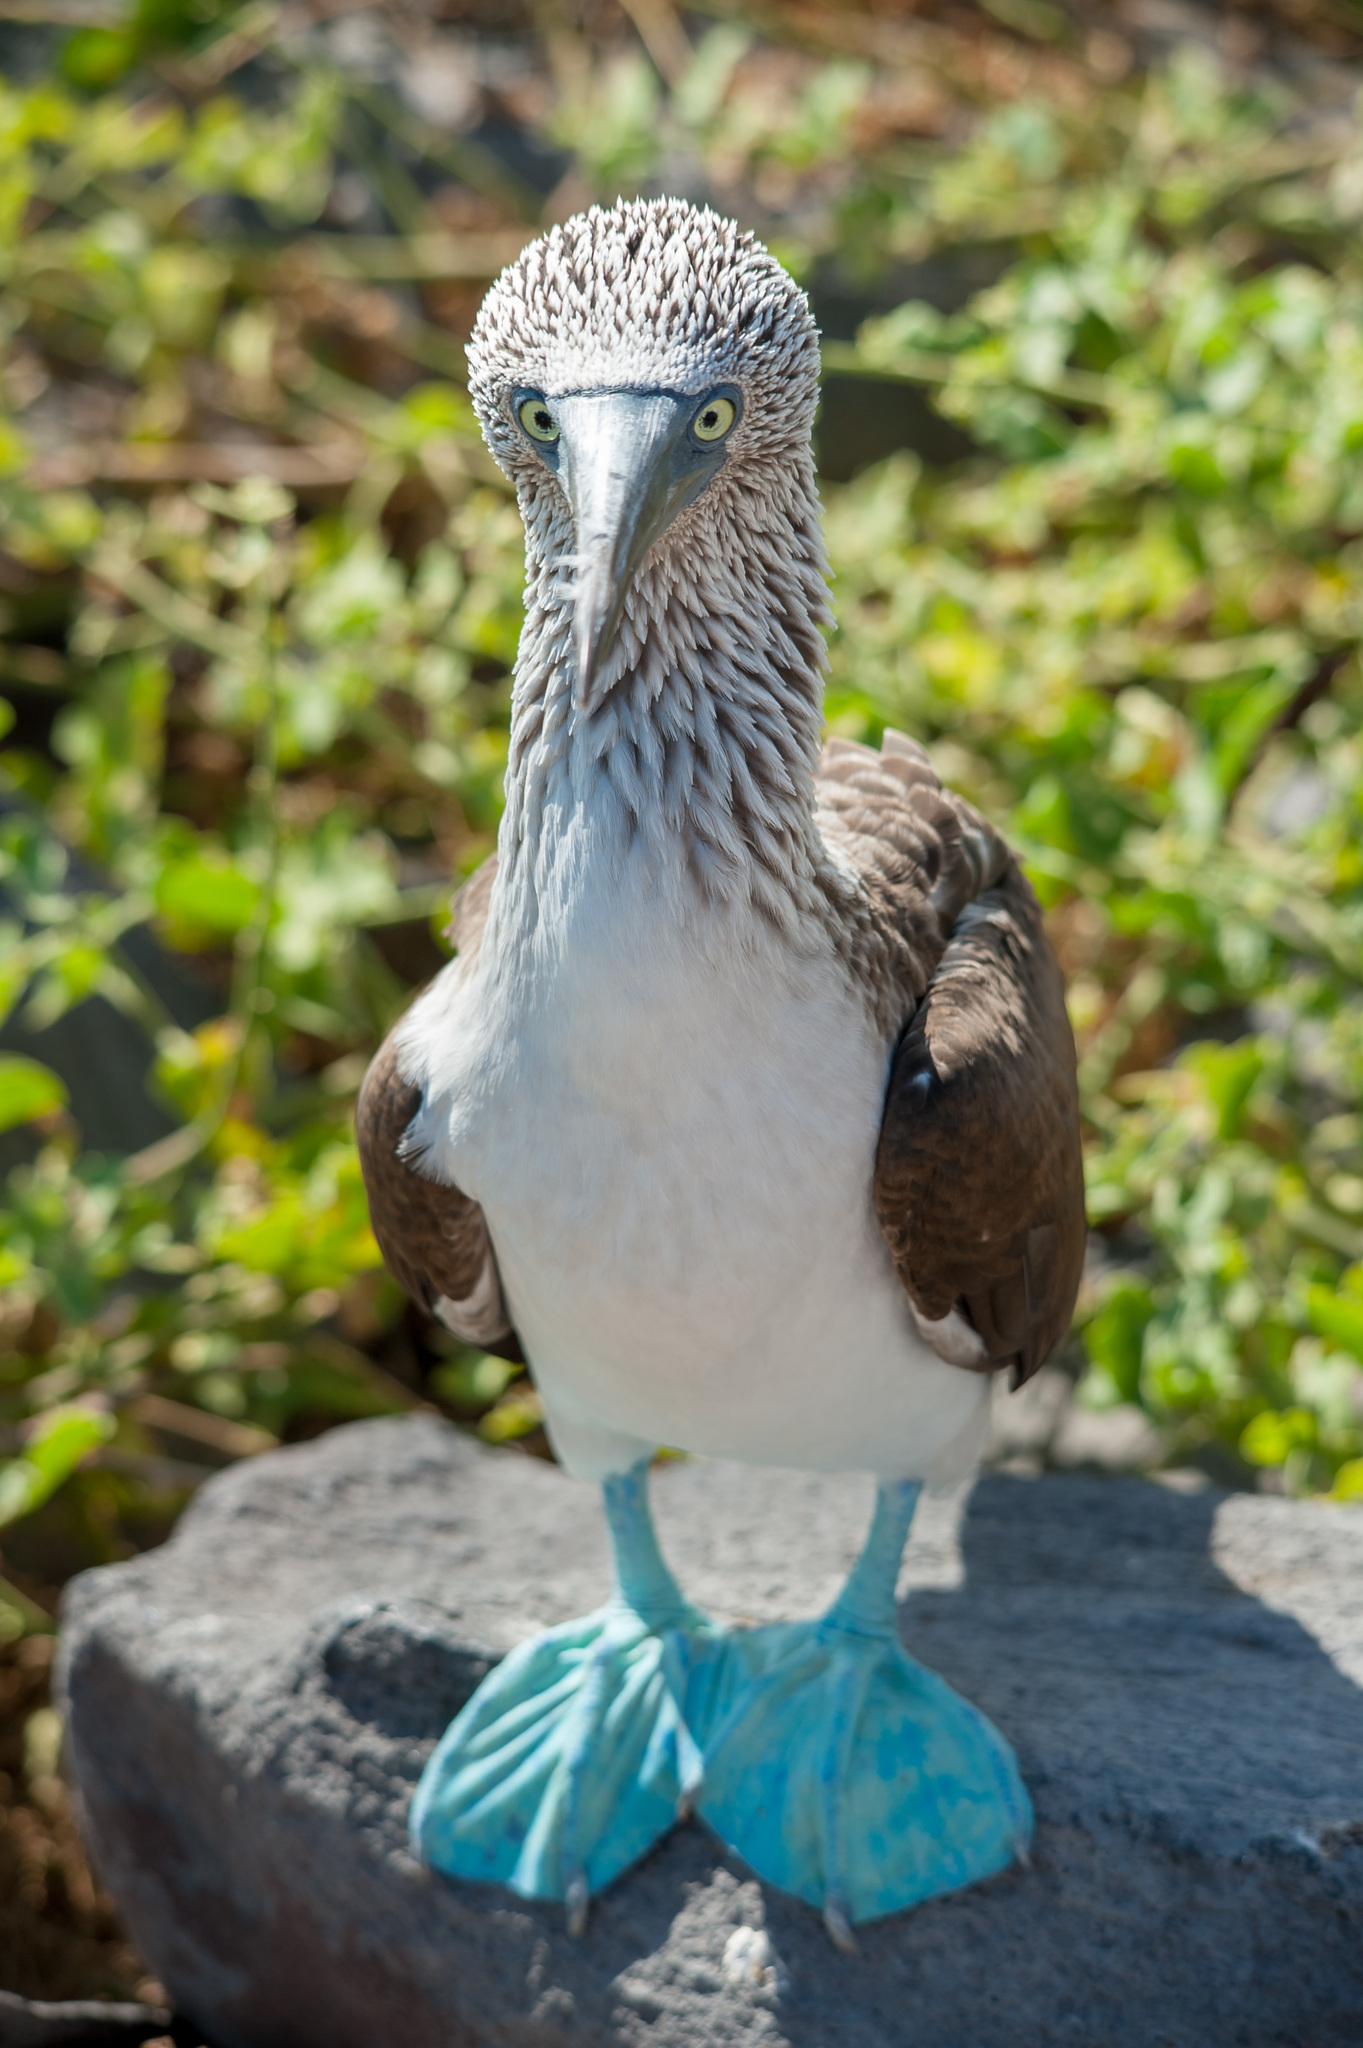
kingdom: Animalia
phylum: Chordata
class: Aves
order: Suliformes
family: Sulidae
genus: Sula
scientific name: Sula nebouxii
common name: Blue-footed booby
